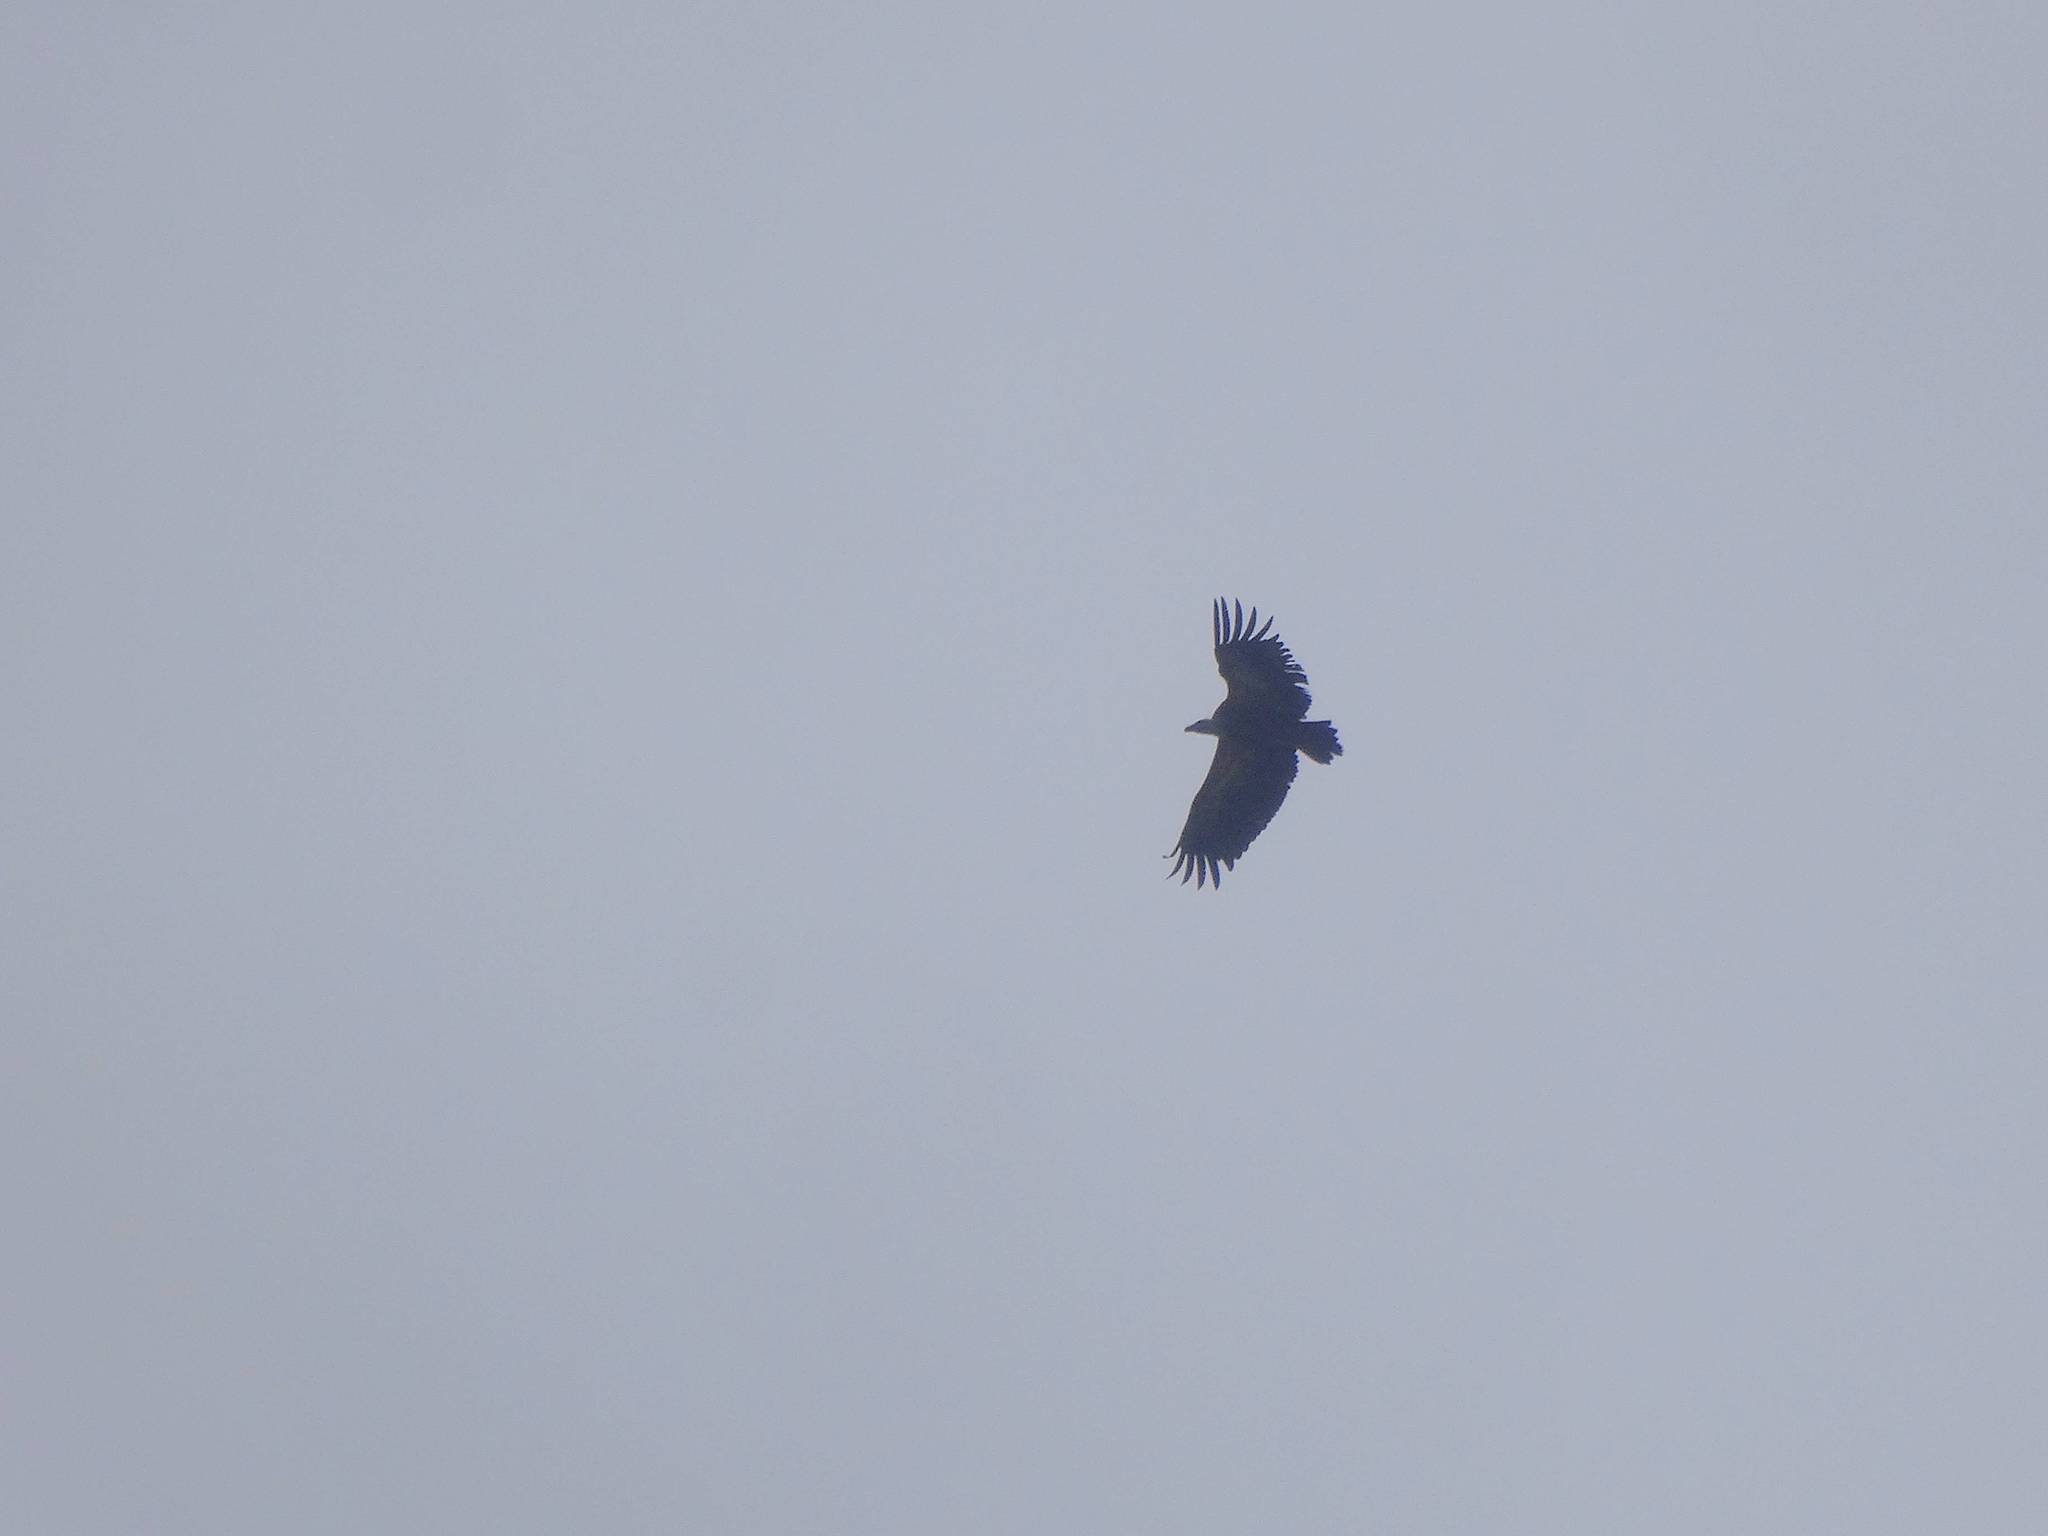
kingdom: Animalia
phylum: Chordata
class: Aves
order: Accipitriformes
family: Accipitridae
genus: Aegypius
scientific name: Aegypius monachus
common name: Cinereous vulture
